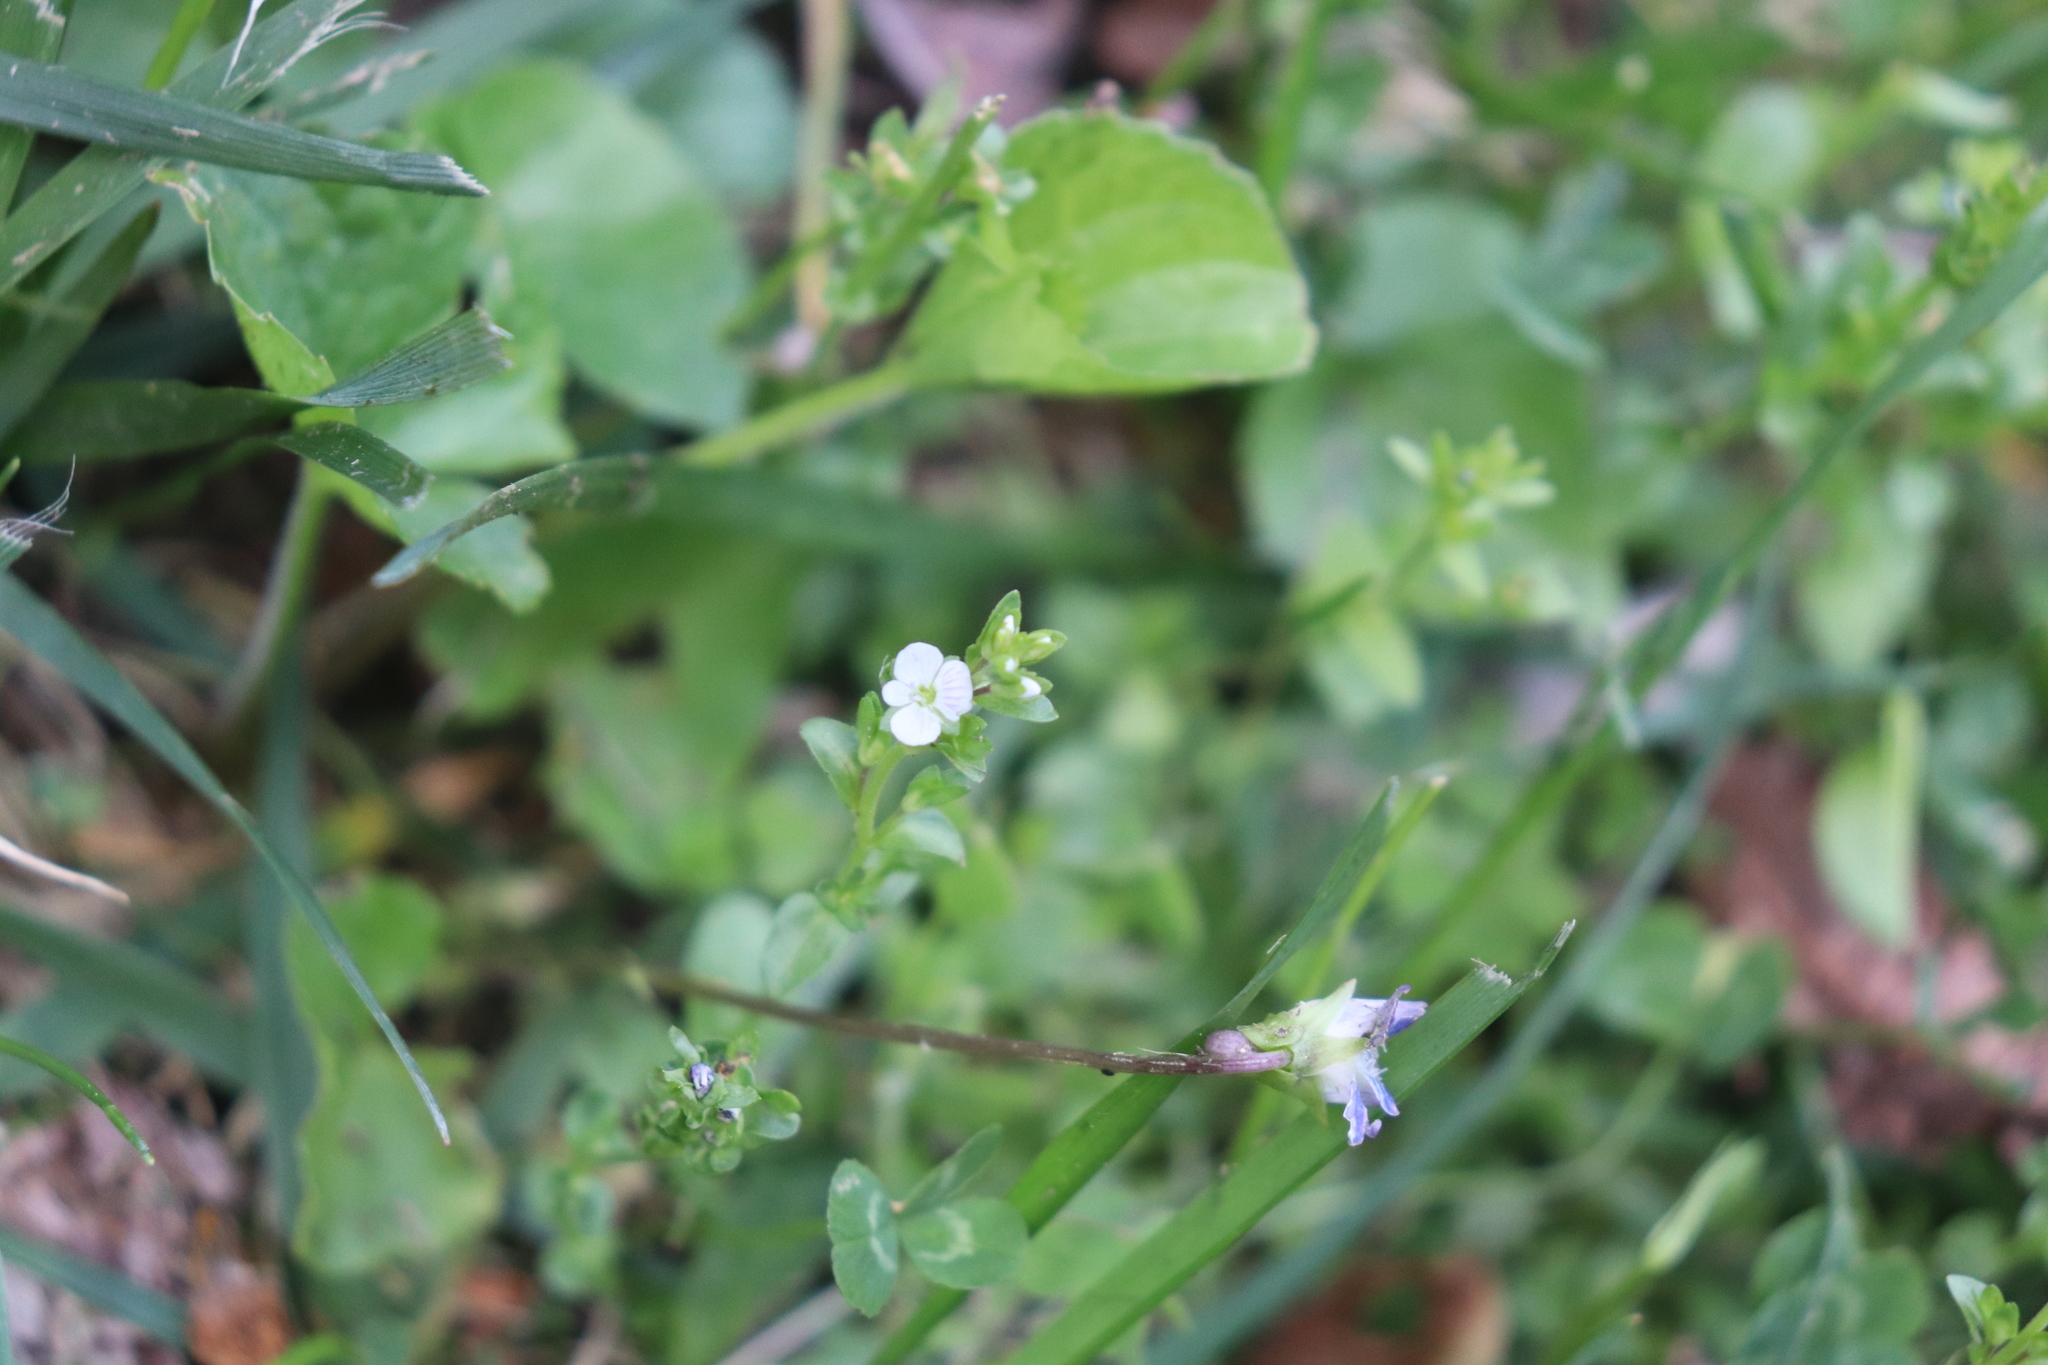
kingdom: Plantae
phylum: Tracheophyta
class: Magnoliopsida
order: Lamiales
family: Plantaginaceae
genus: Veronica
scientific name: Veronica serpyllifolia
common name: Thyme-leaved speedwell
